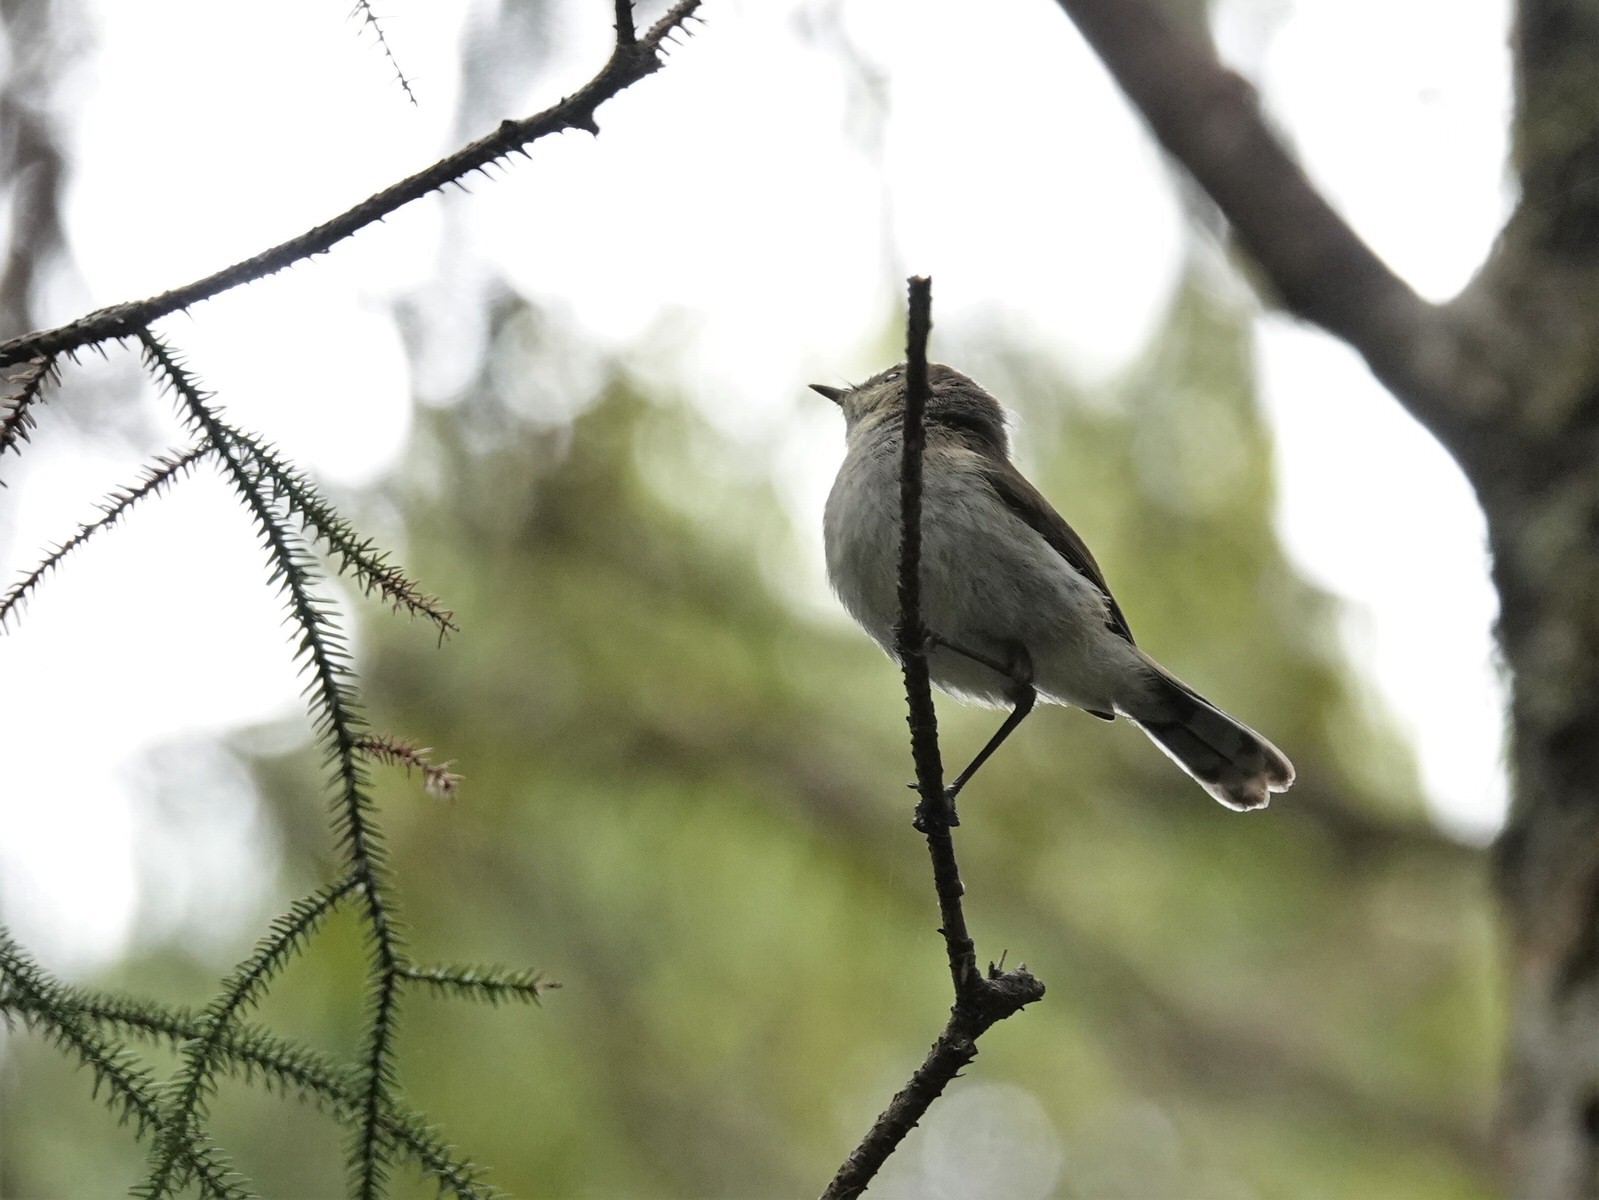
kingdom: Animalia
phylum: Chordata
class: Aves
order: Passeriformes
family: Acanthizidae
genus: Gerygone
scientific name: Gerygone igata
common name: Grey gerygone
